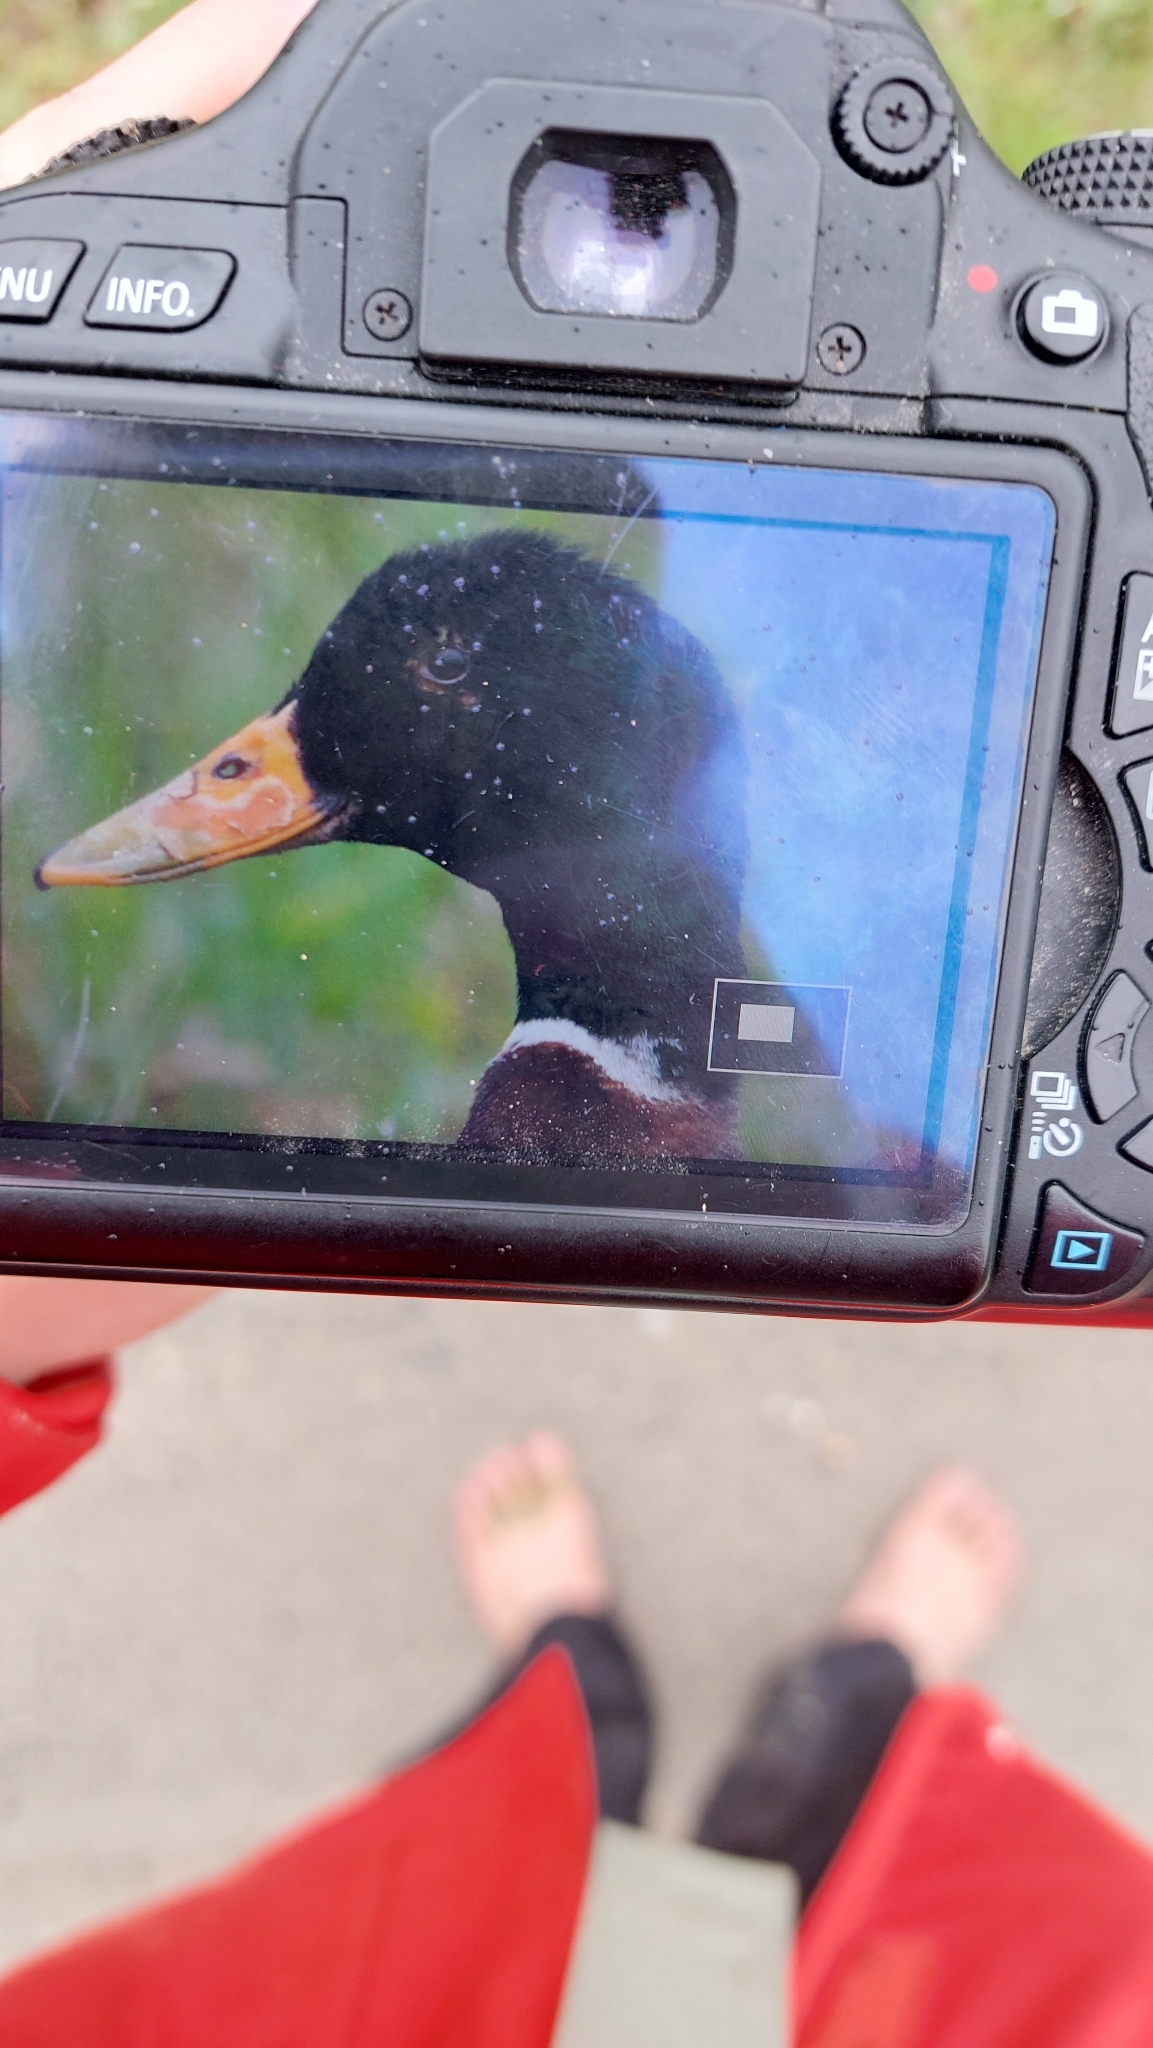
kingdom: Animalia
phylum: Chordata
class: Aves
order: Anseriformes
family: Anatidae
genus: Anas
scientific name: Anas platyrhynchos
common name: Mallard
